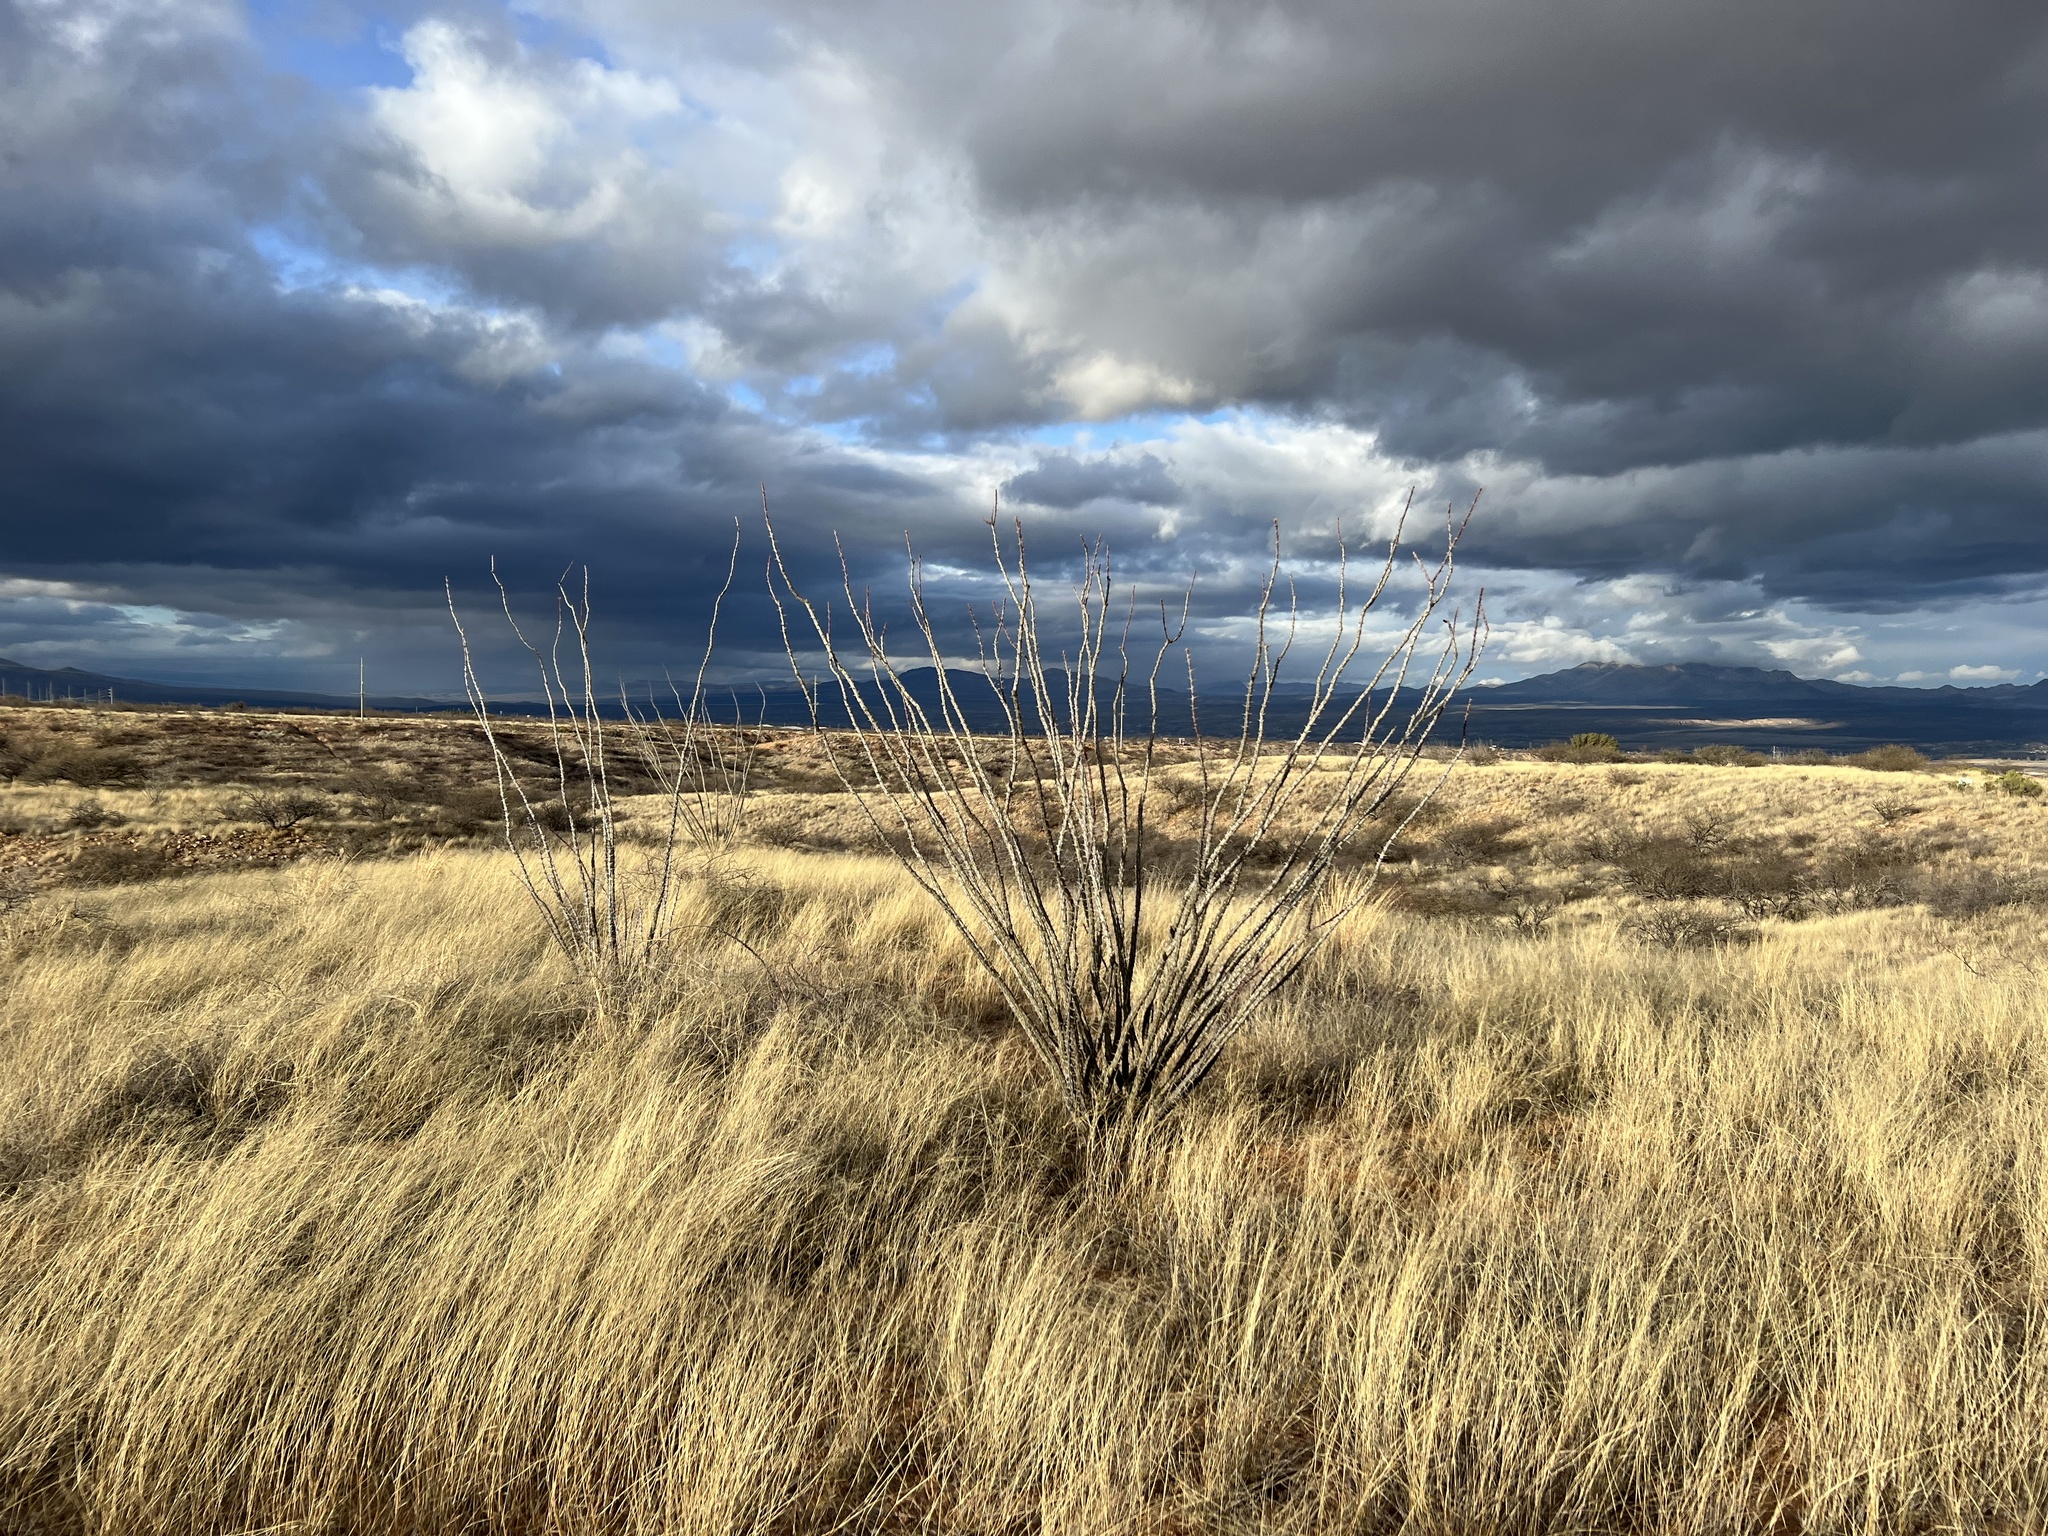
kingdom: Plantae
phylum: Tracheophyta
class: Magnoliopsida
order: Ericales
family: Fouquieriaceae
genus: Fouquieria
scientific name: Fouquieria splendens
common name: Vine-cactus
